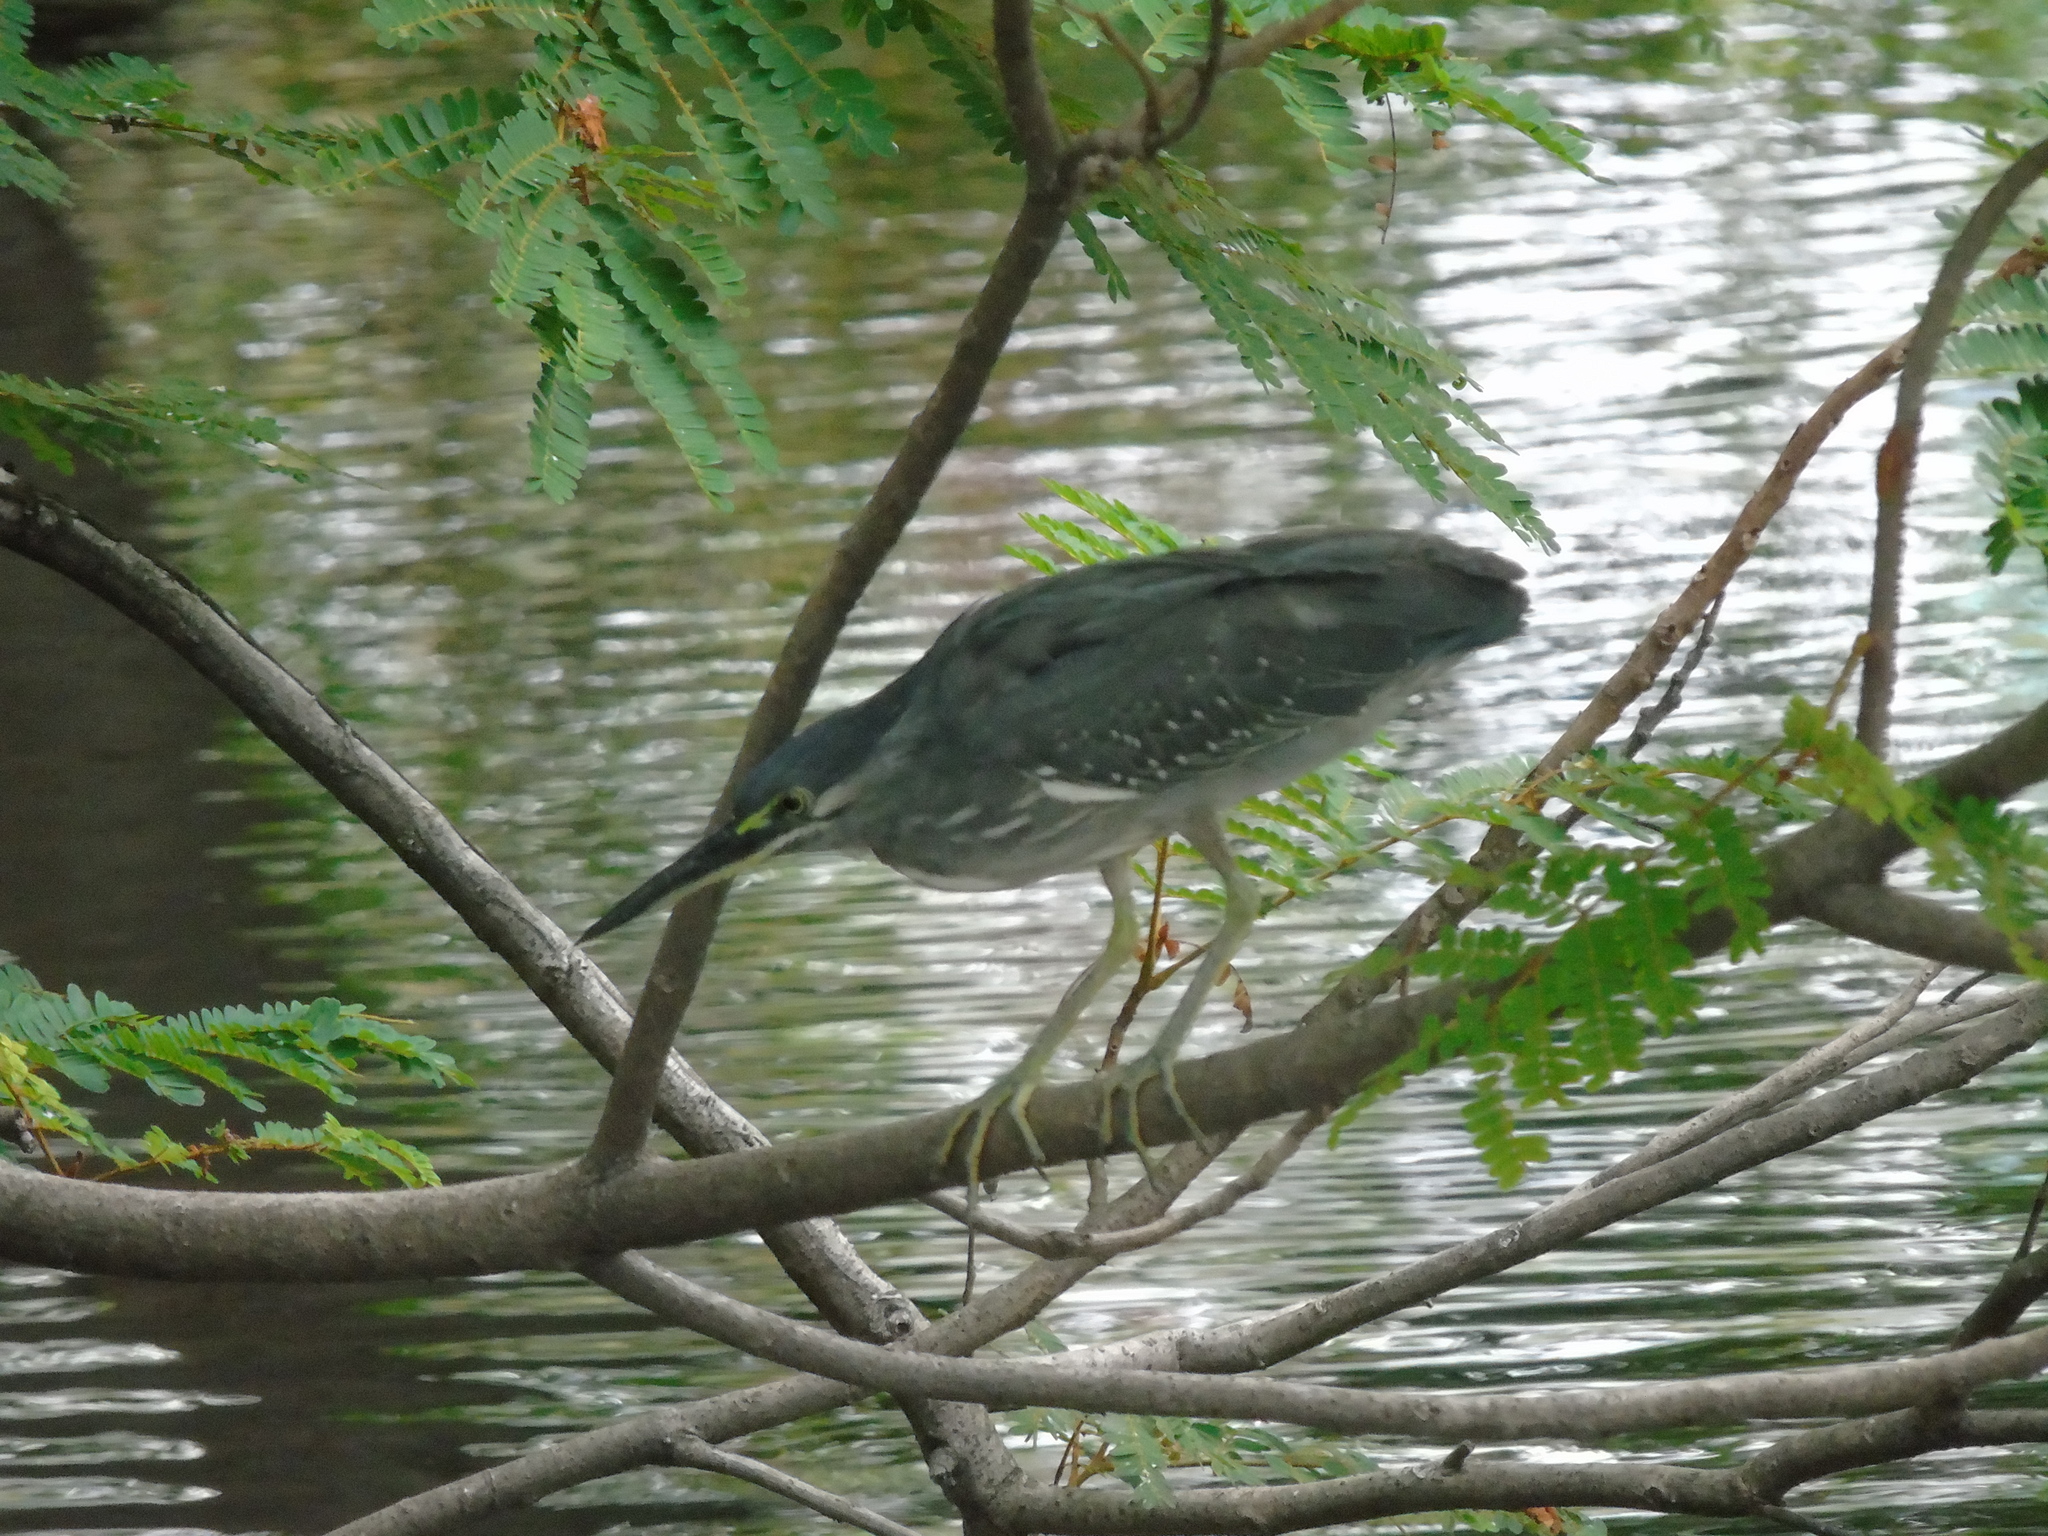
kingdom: Animalia
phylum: Chordata
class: Aves
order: Pelecaniformes
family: Ardeidae
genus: Butorides
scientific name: Butorides striata
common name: Striated heron
